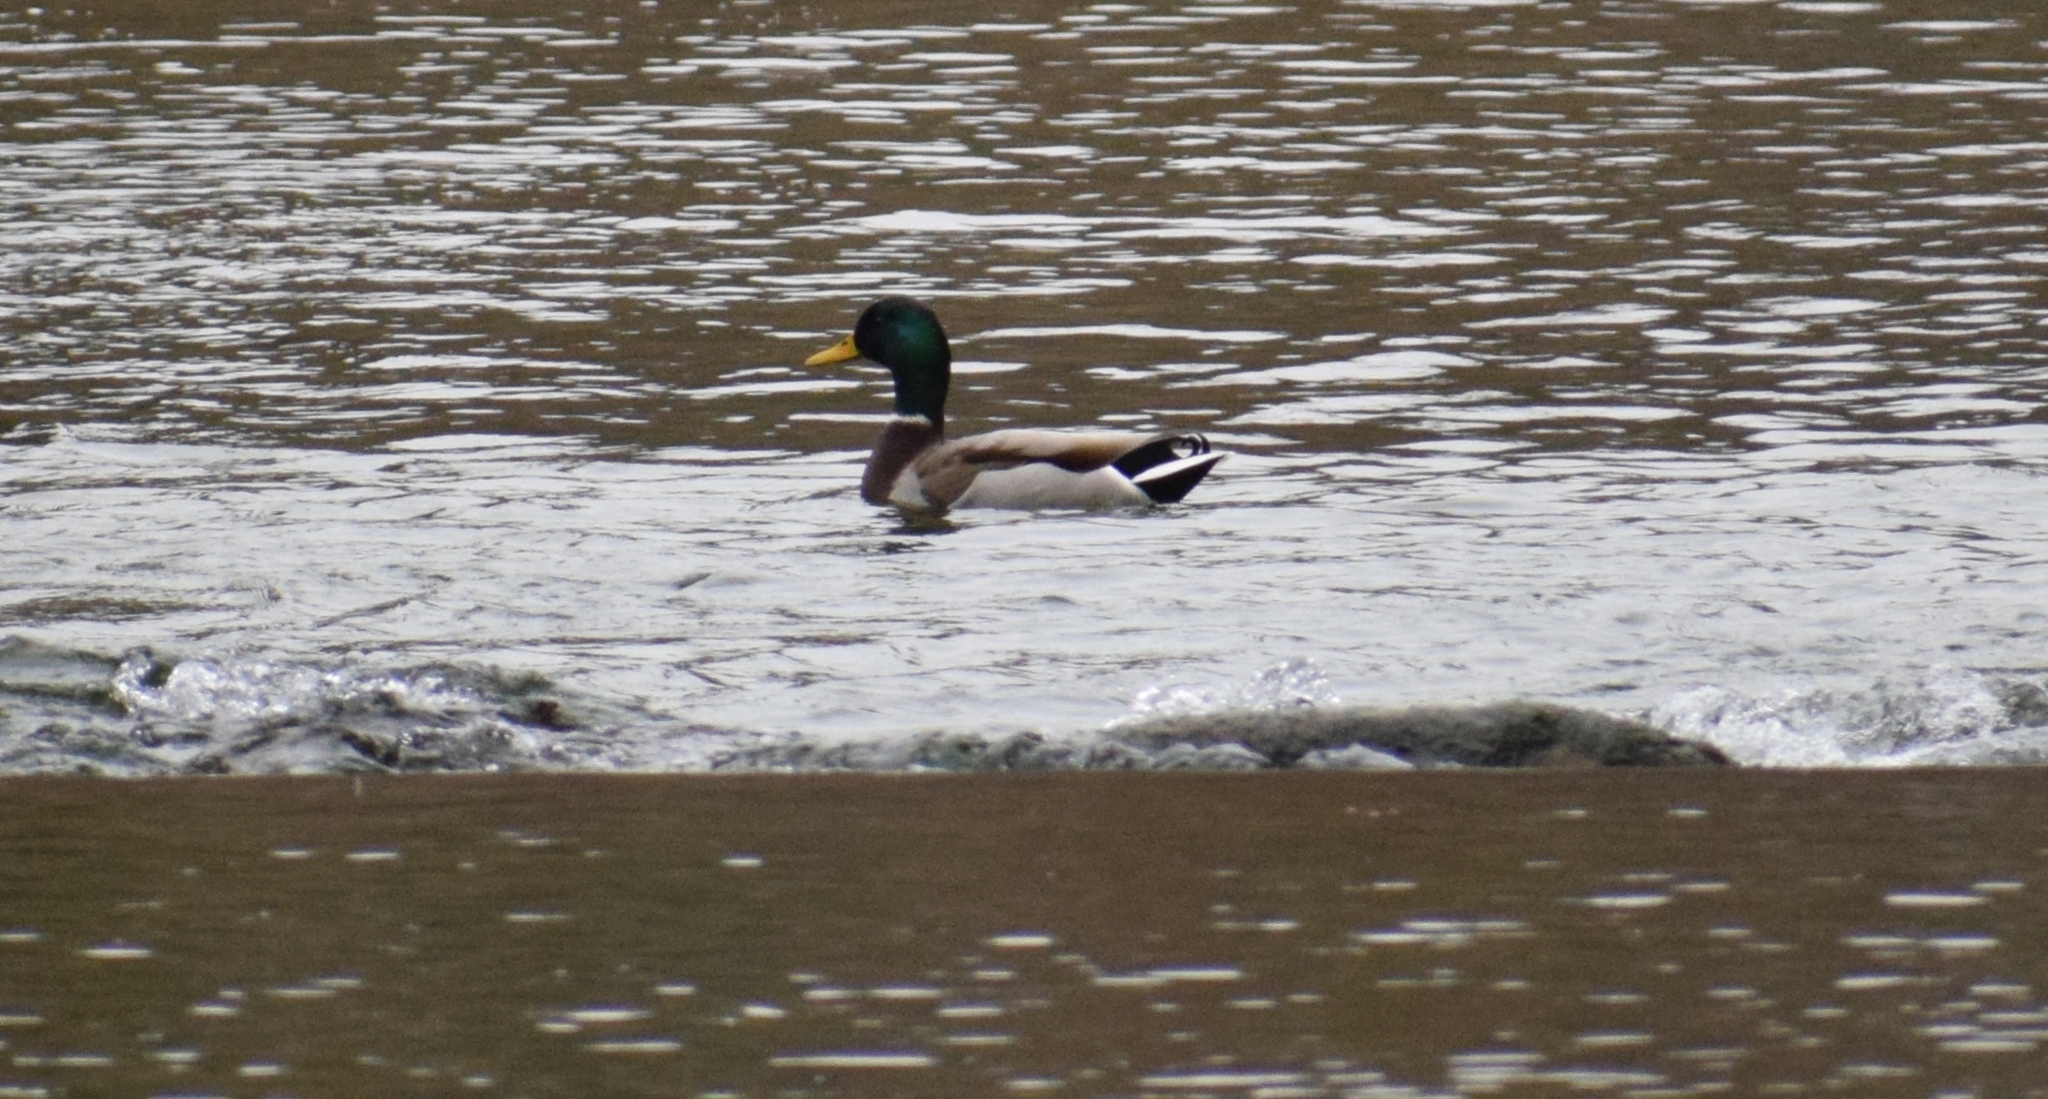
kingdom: Animalia
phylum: Chordata
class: Aves
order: Anseriformes
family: Anatidae
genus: Anas
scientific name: Anas platyrhynchos
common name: Mallard
